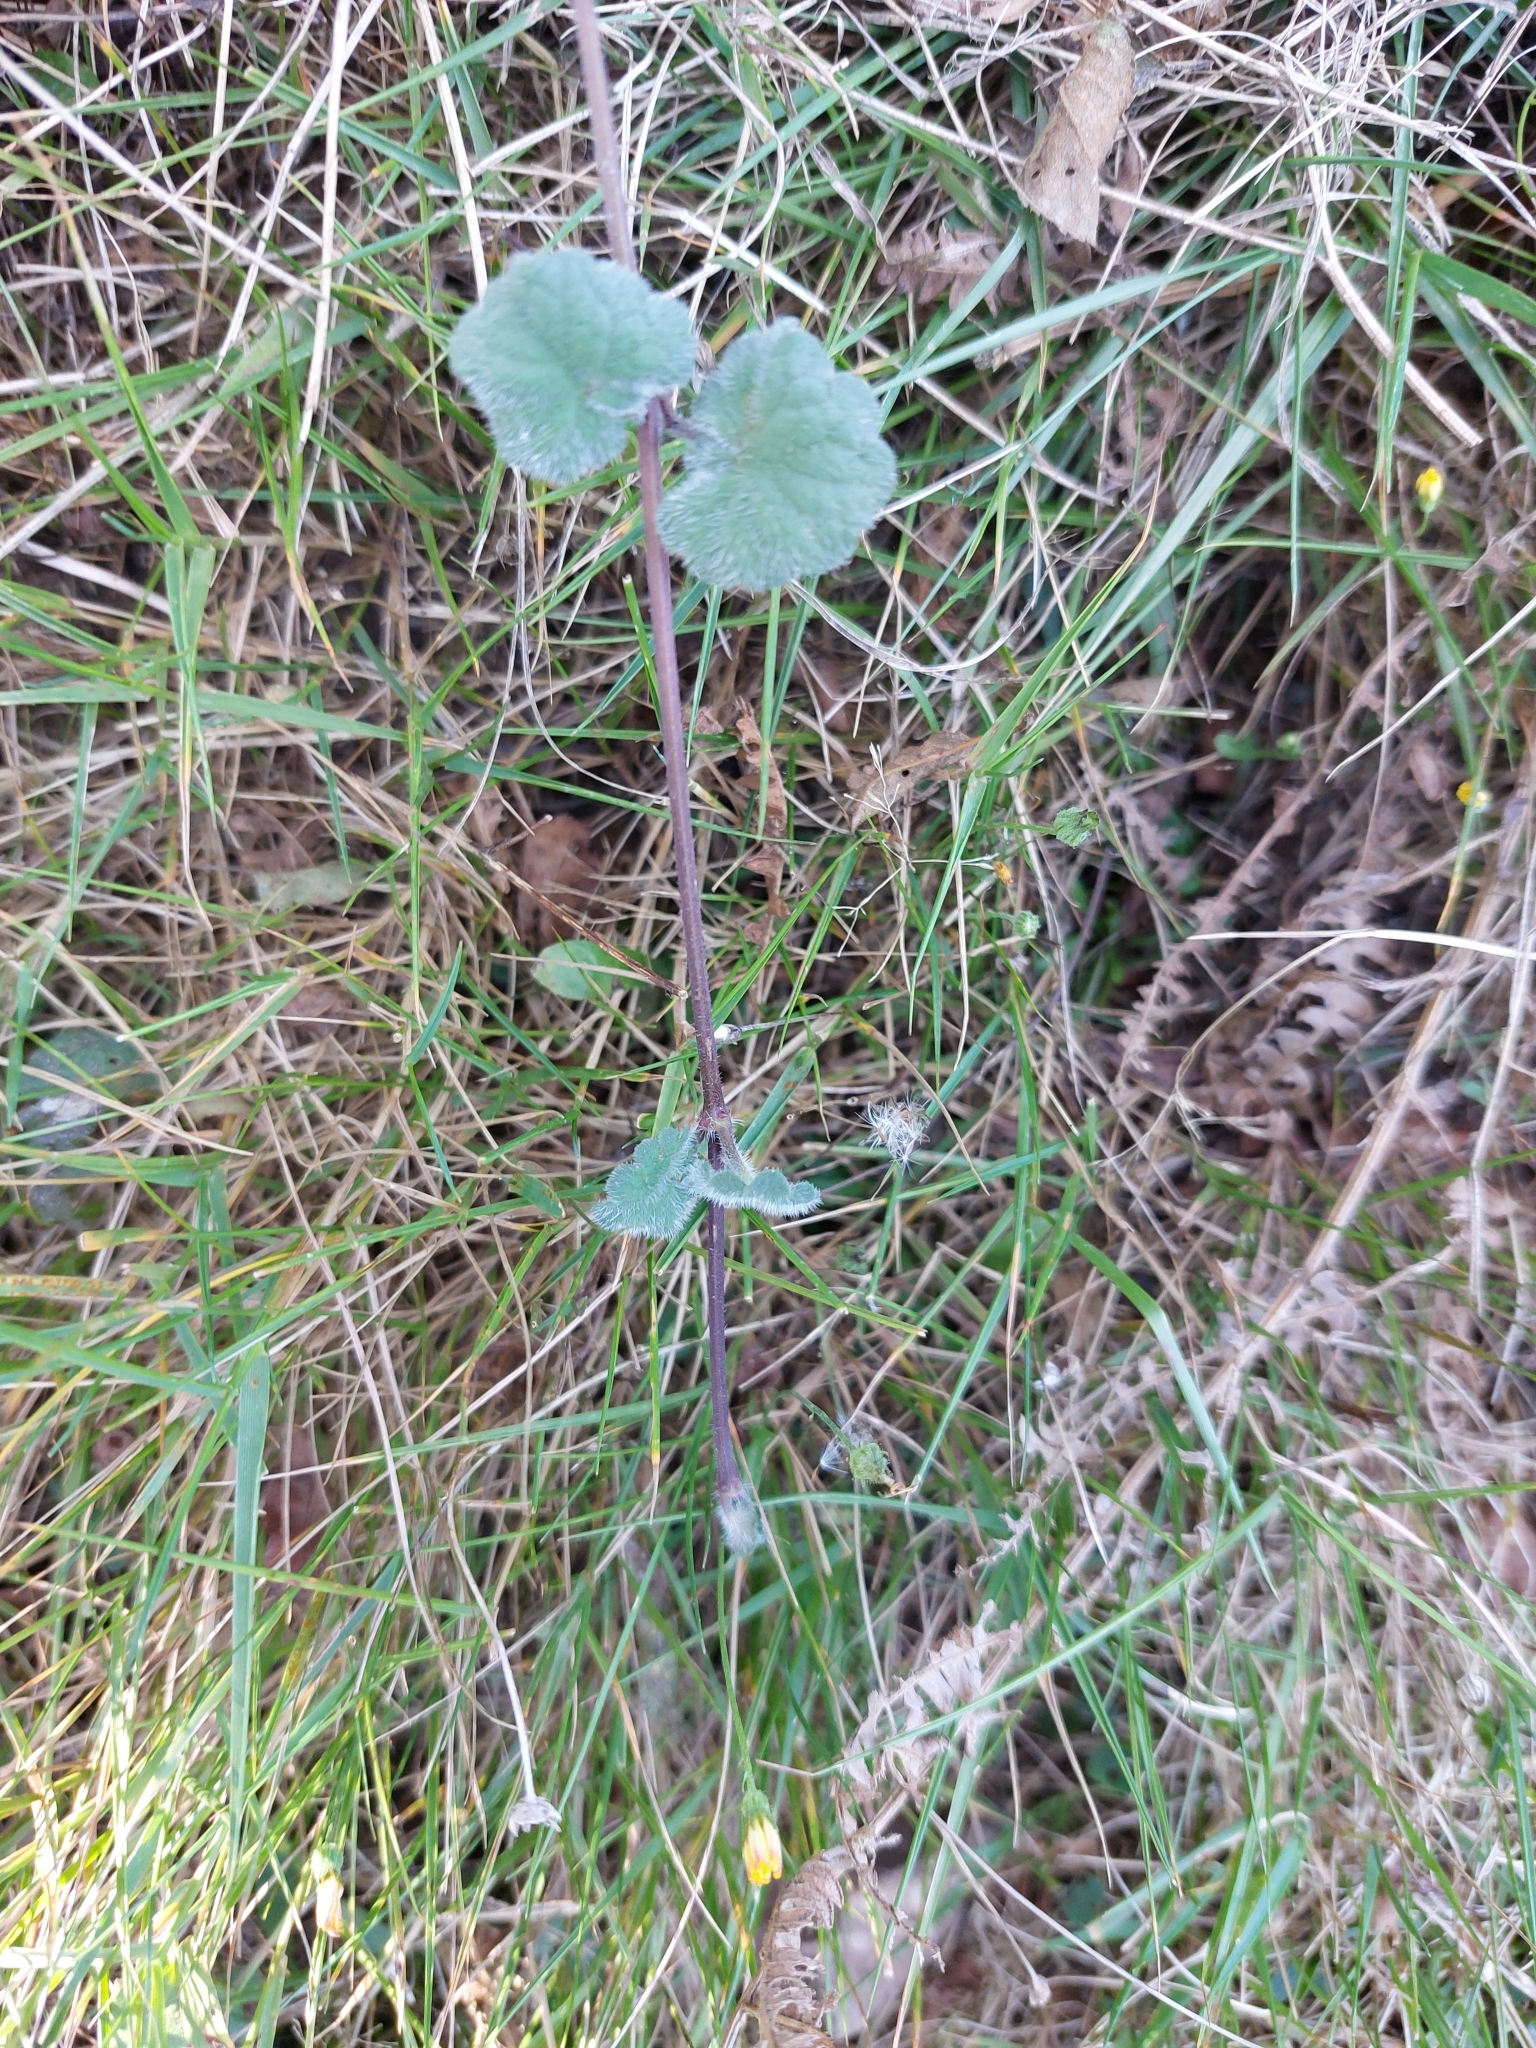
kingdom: Plantae
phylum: Tracheophyta
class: Magnoliopsida
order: Lamiales
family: Lamiaceae
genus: Glechoma
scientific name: Glechoma hederacea
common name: Ground ivy
